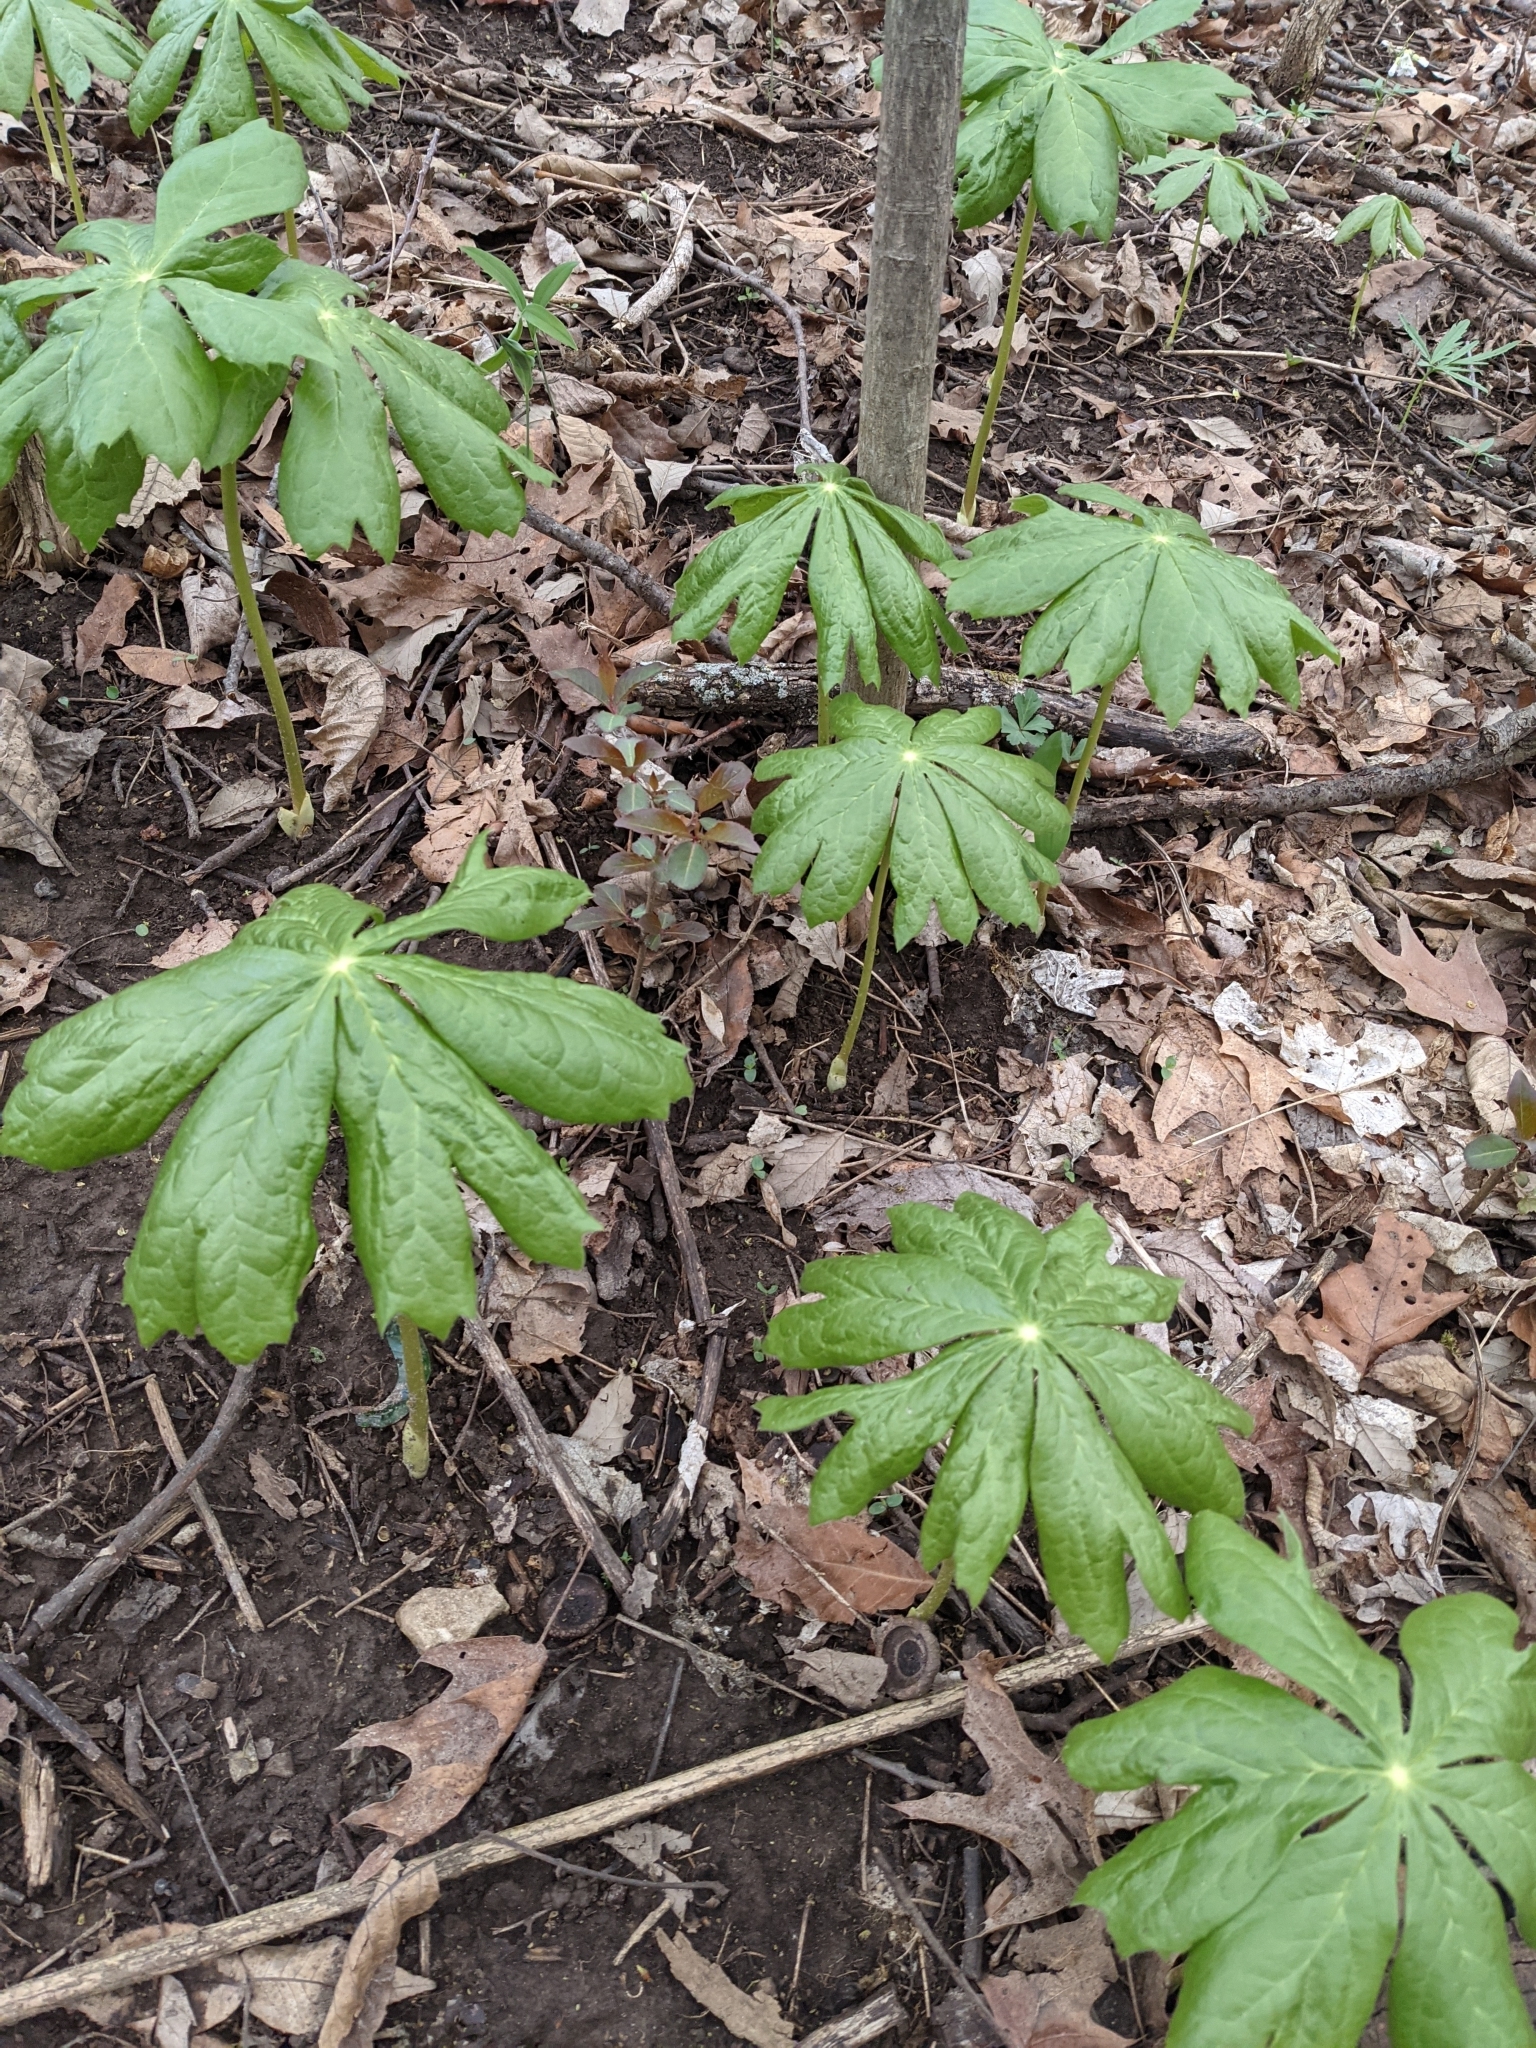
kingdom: Plantae
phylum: Tracheophyta
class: Magnoliopsida
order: Ranunculales
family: Berberidaceae
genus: Podophyllum
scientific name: Podophyllum peltatum
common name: Wild mandrake
